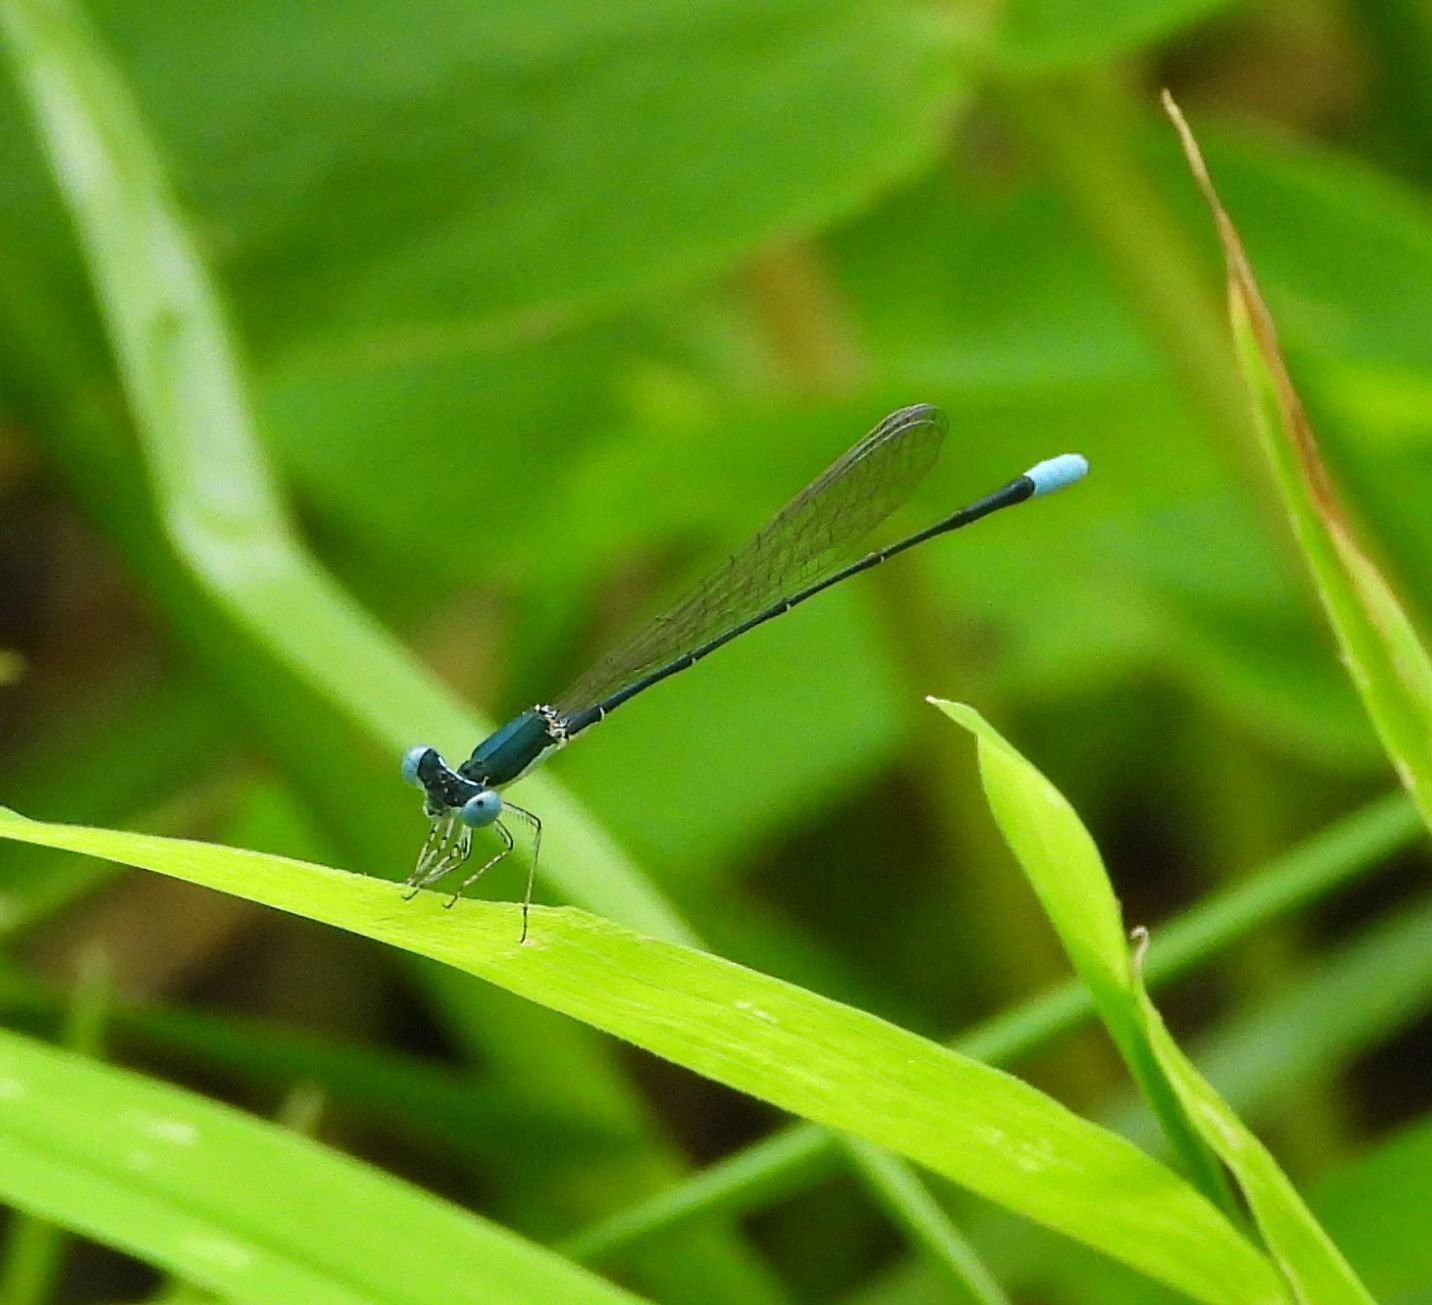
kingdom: Animalia
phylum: Arthropoda
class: Insecta
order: Odonata
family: Coenagrionidae
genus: Nehalennia
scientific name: Nehalennia gracilis
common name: Sphagnum sprite
